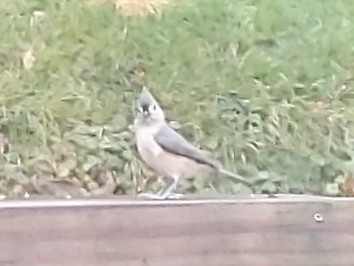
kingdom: Animalia
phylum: Chordata
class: Aves
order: Passeriformes
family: Paridae
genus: Baeolophus
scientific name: Baeolophus bicolor
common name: Tufted titmouse
